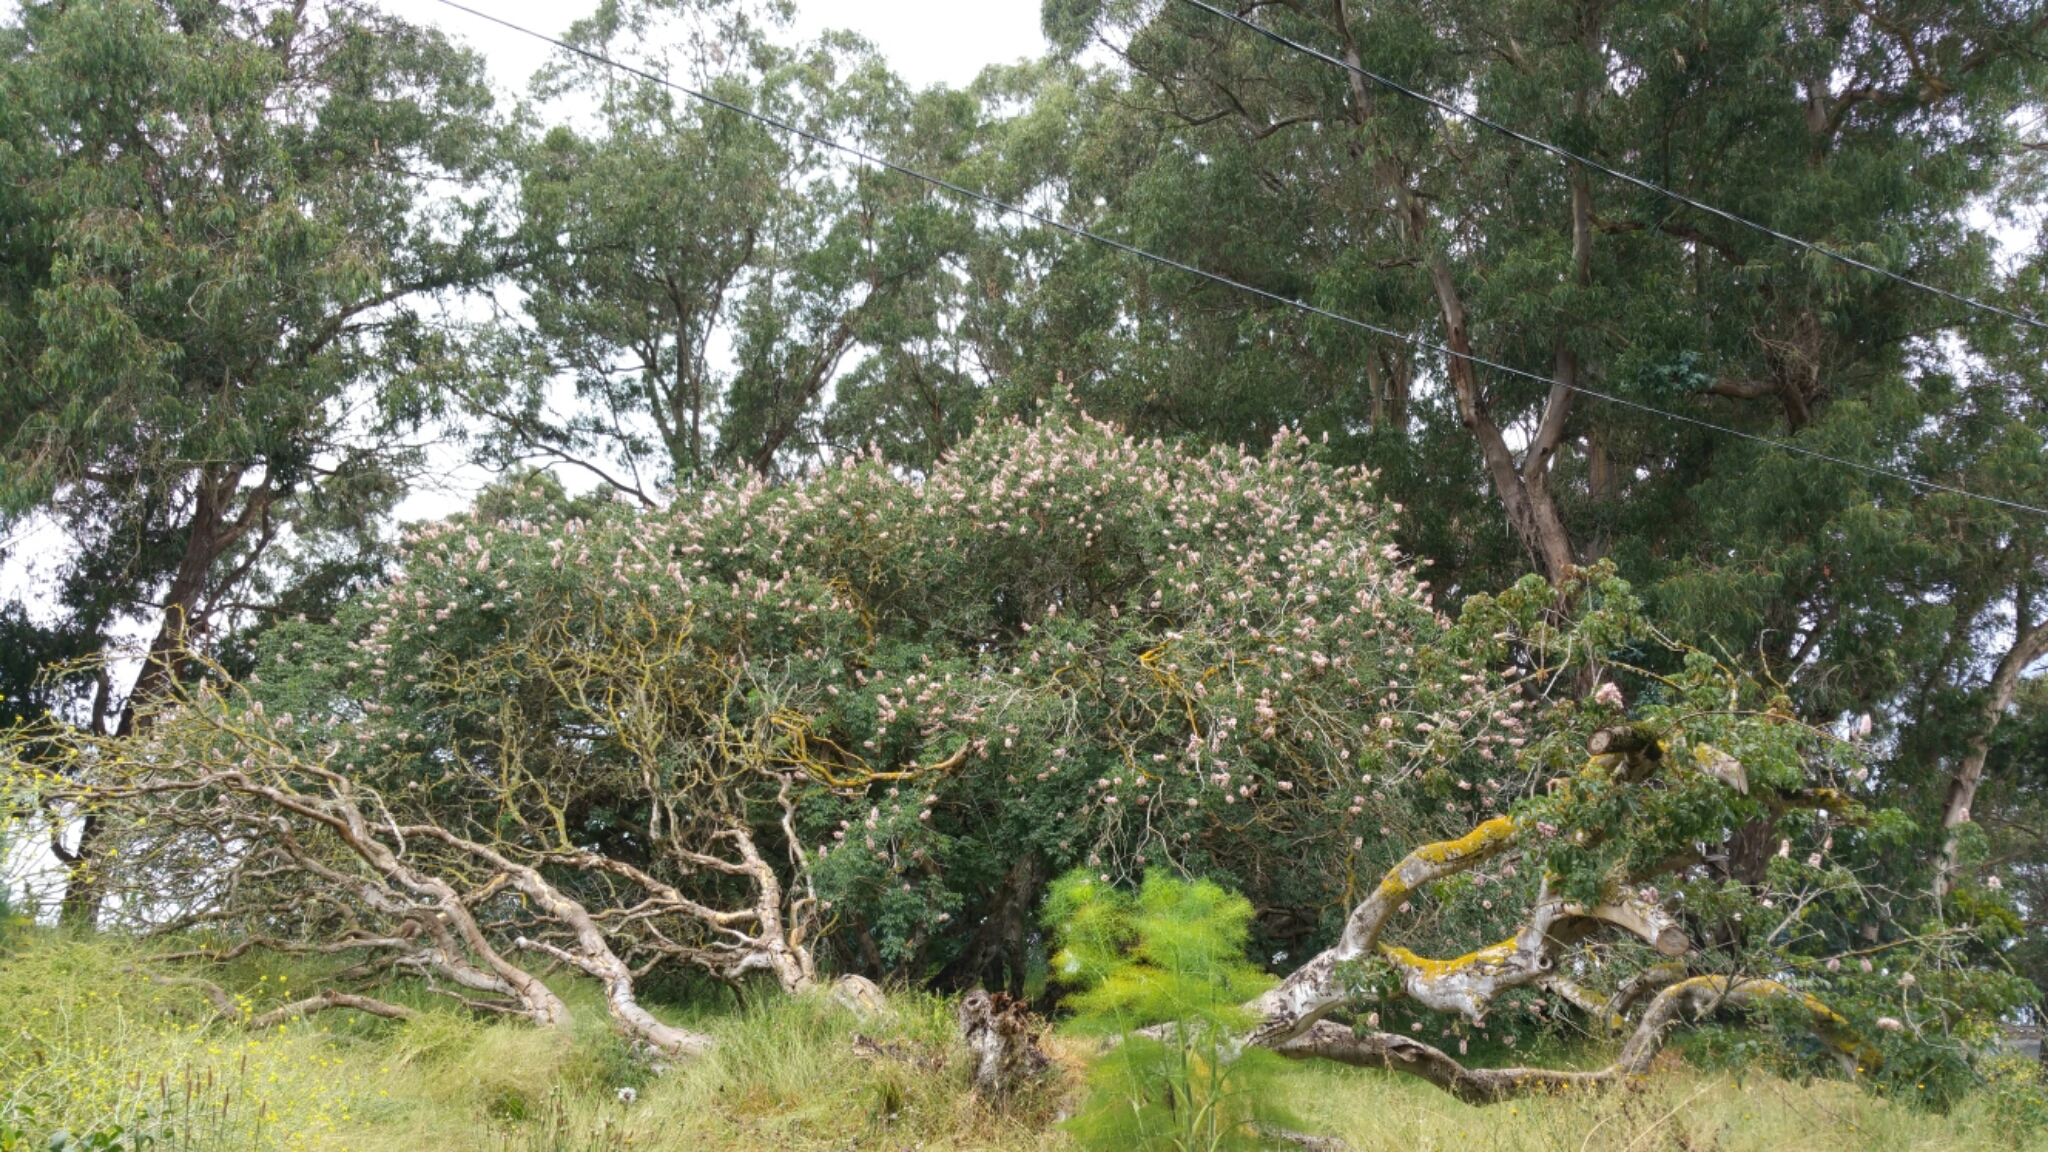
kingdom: Plantae
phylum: Tracheophyta
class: Magnoliopsida
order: Sapindales
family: Sapindaceae
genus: Aesculus
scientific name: Aesculus californica
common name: California buckeye
